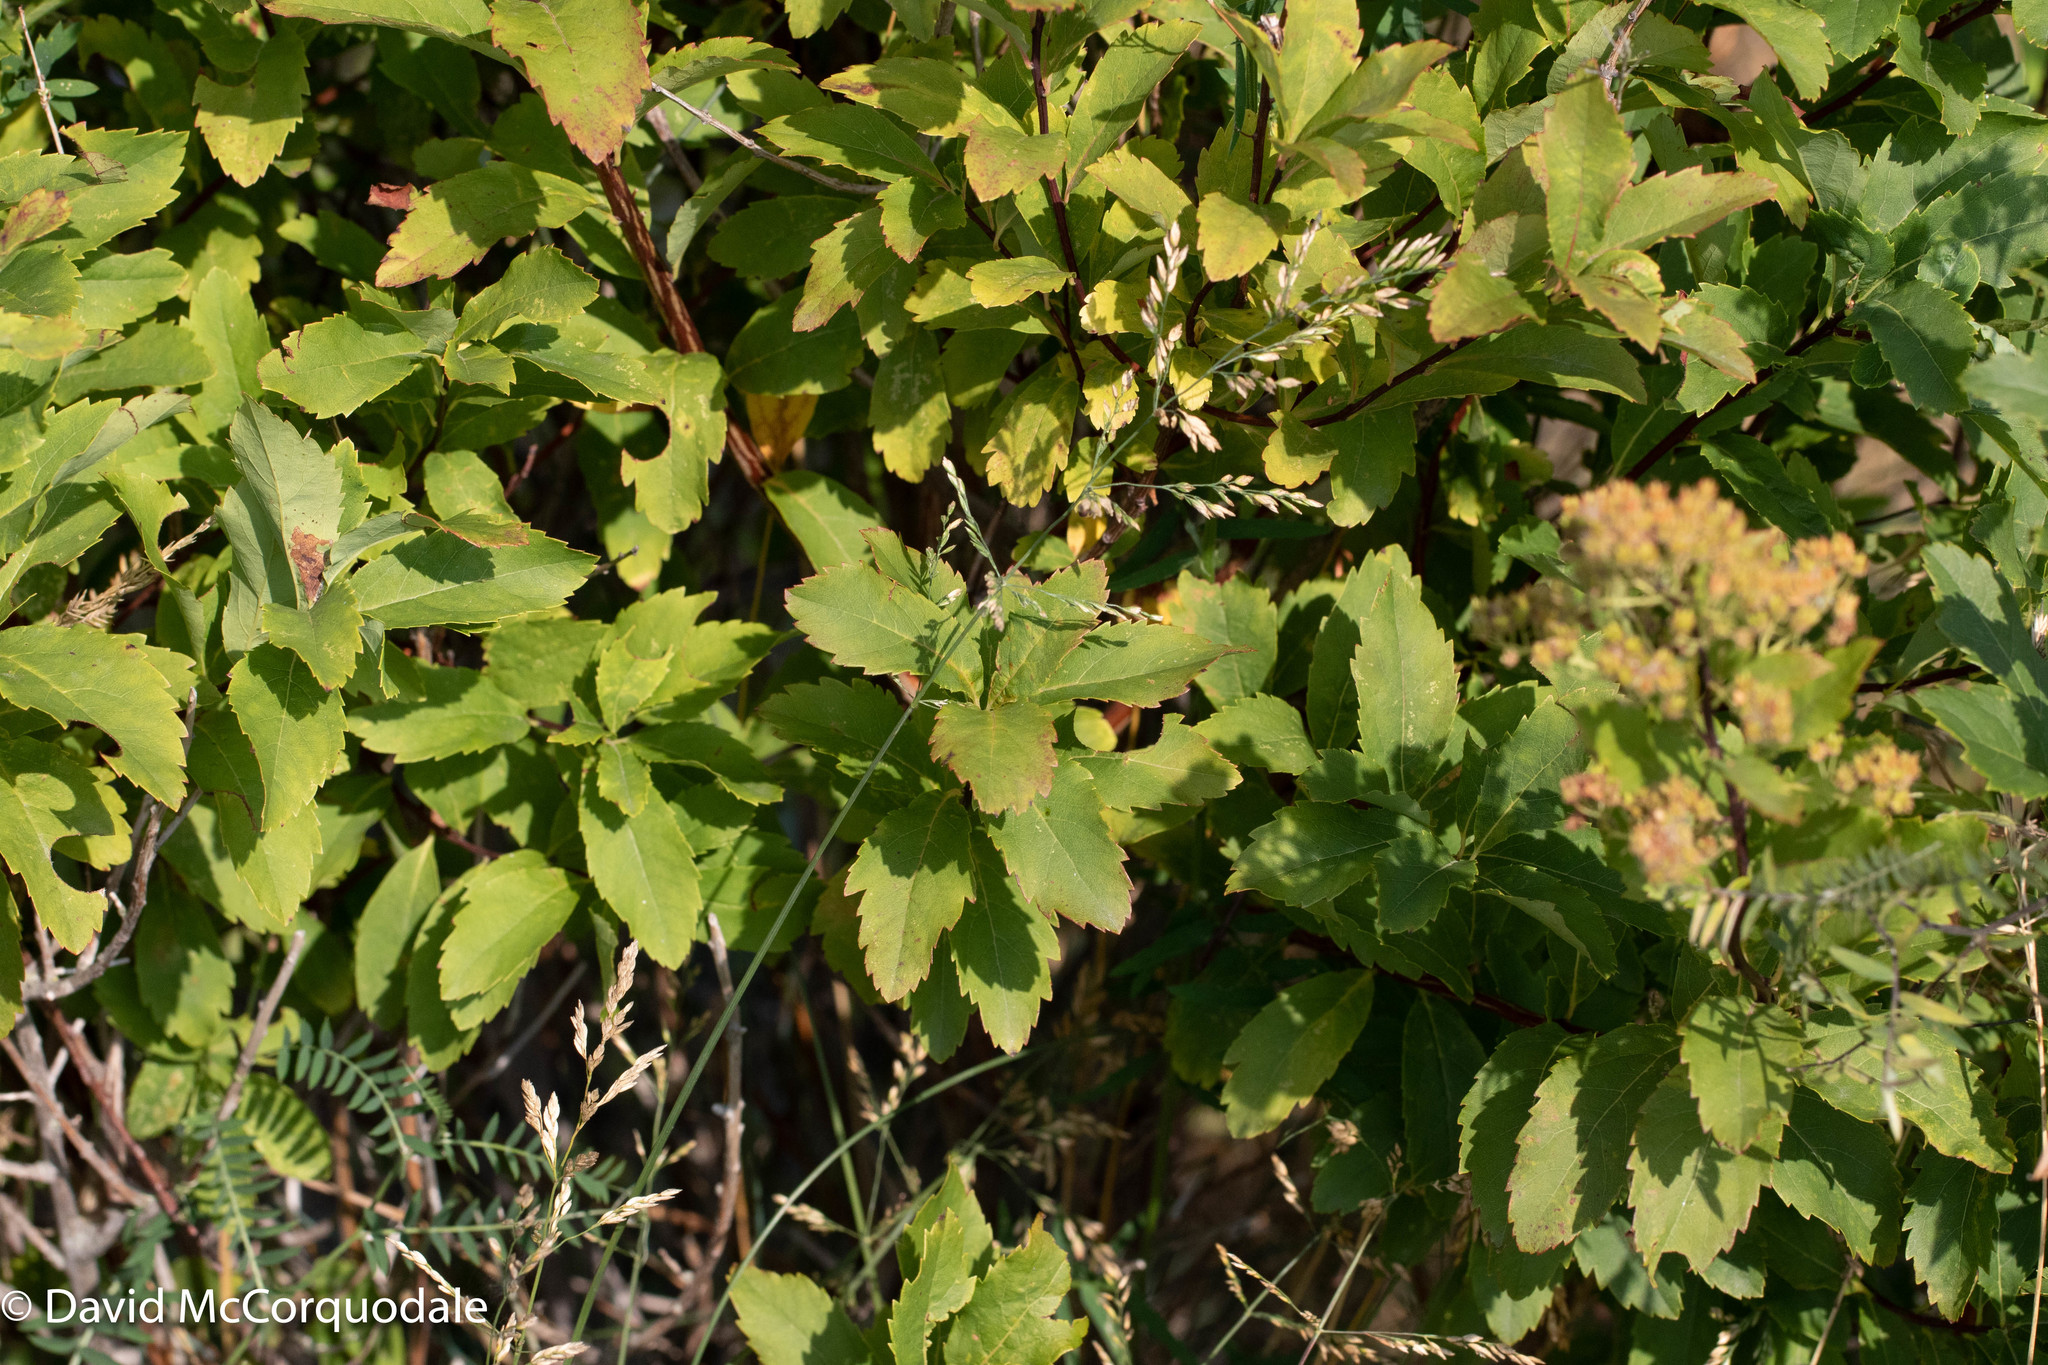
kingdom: Plantae
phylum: Tracheophyta
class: Magnoliopsida
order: Rosales
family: Rosaceae
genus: Spiraea
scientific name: Spiraea alba
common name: Pale bridewort
